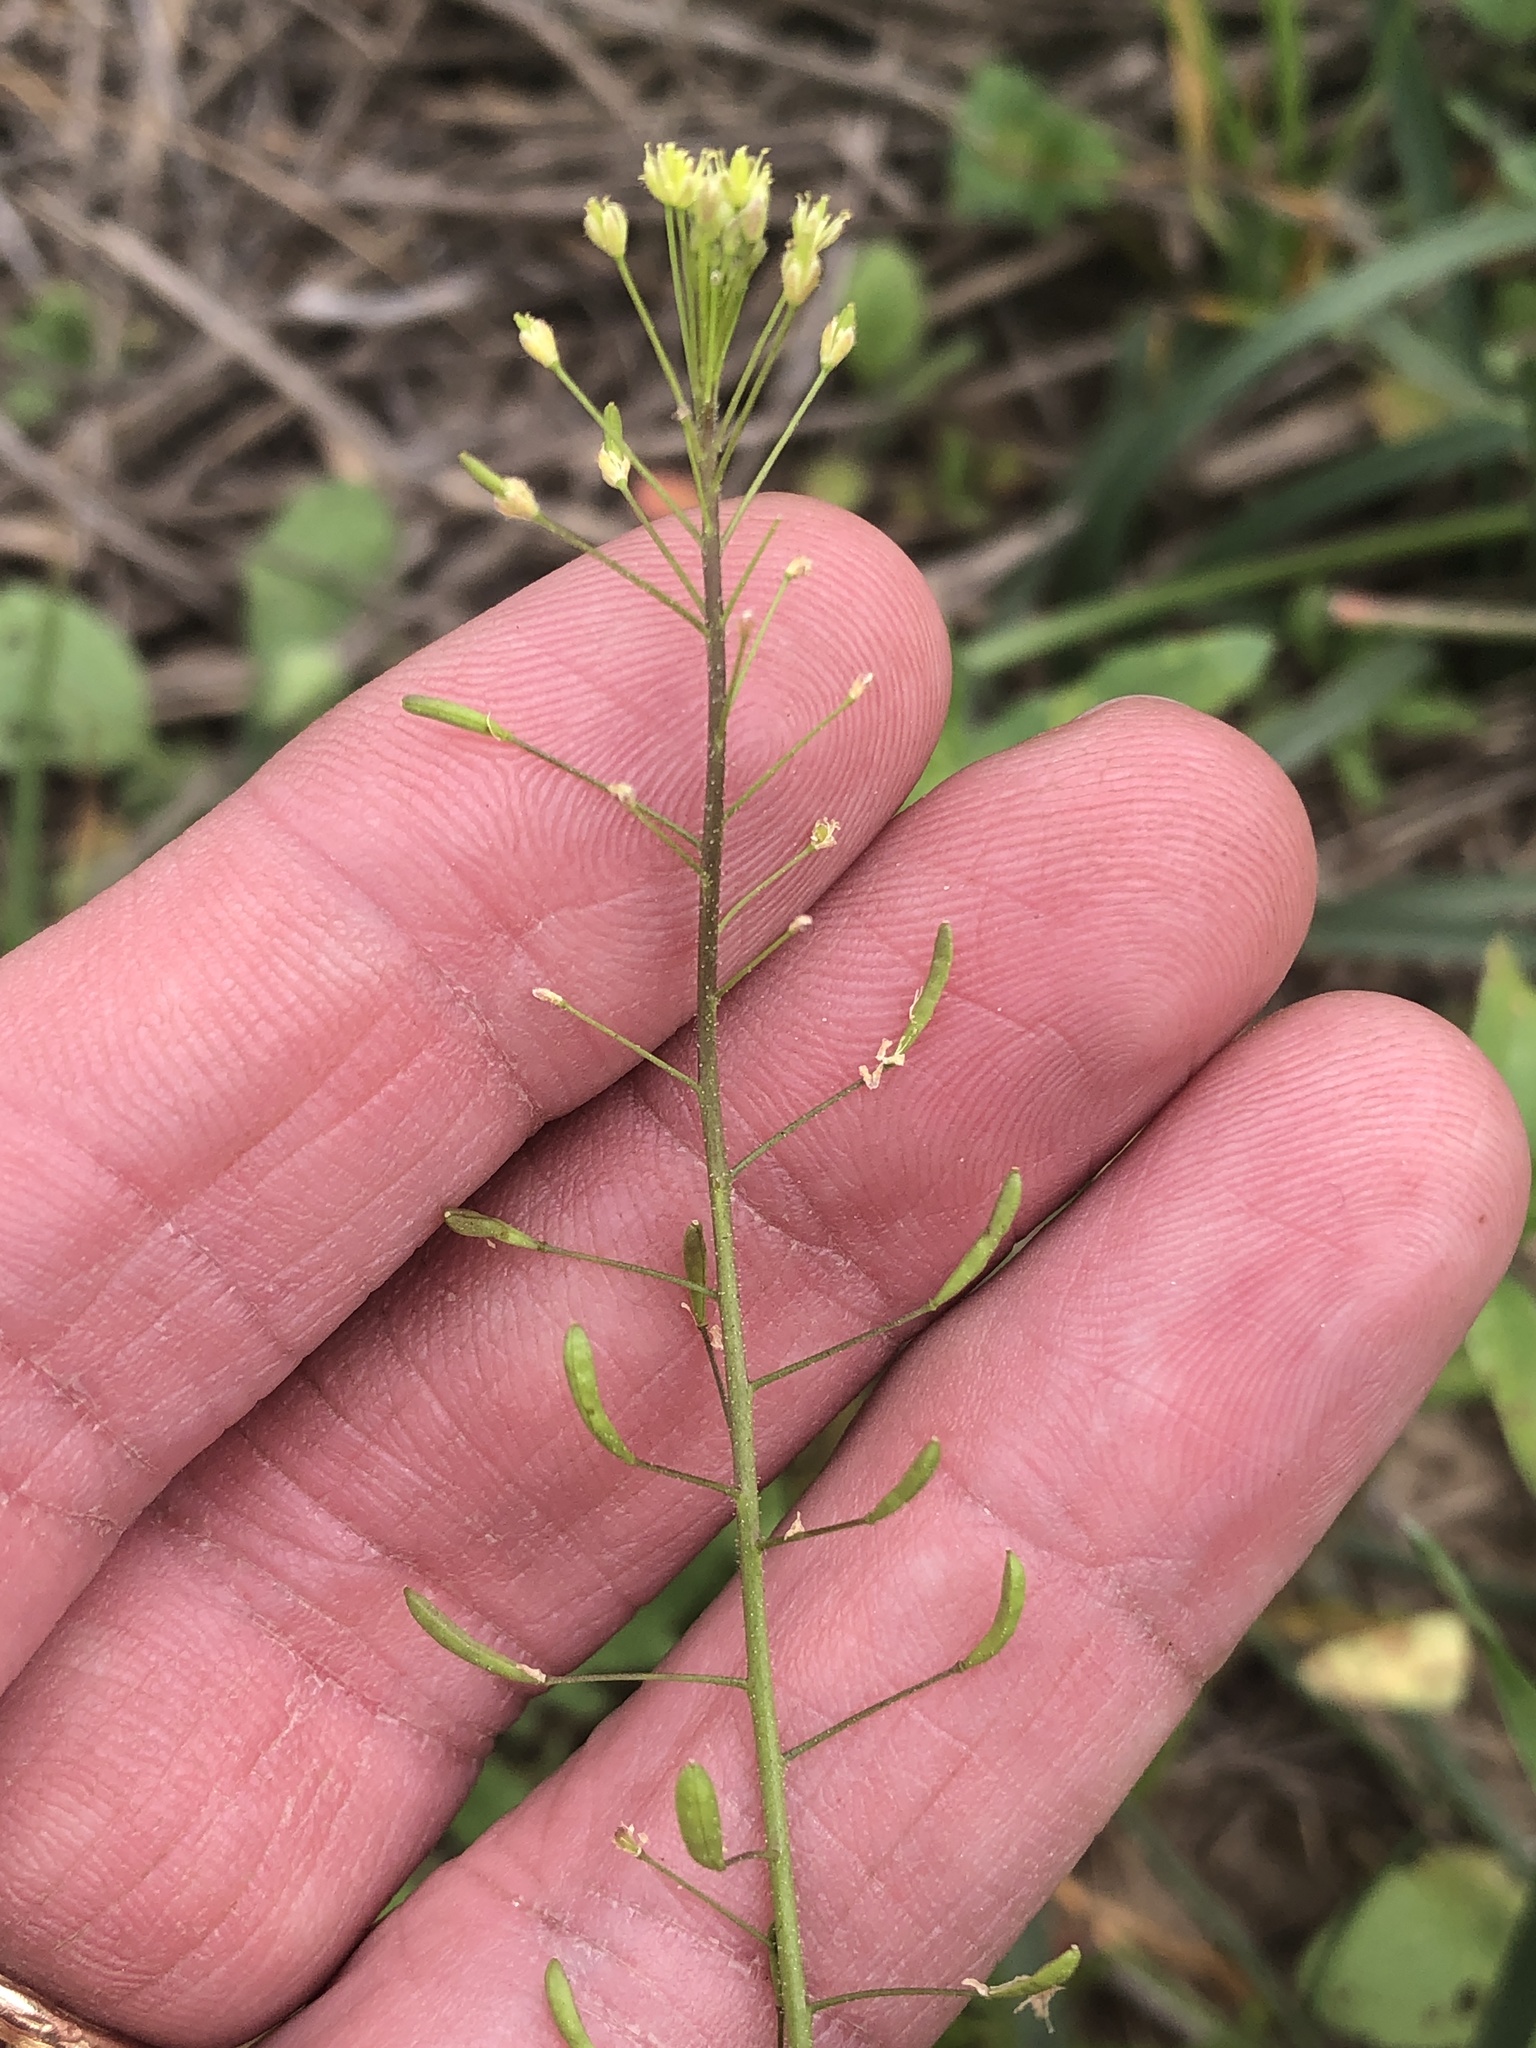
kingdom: Plantae
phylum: Tracheophyta
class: Magnoliopsida
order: Brassicales
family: Brassicaceae
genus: Descurainia
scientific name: Descurainia pinnata
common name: Western tansy mustard
